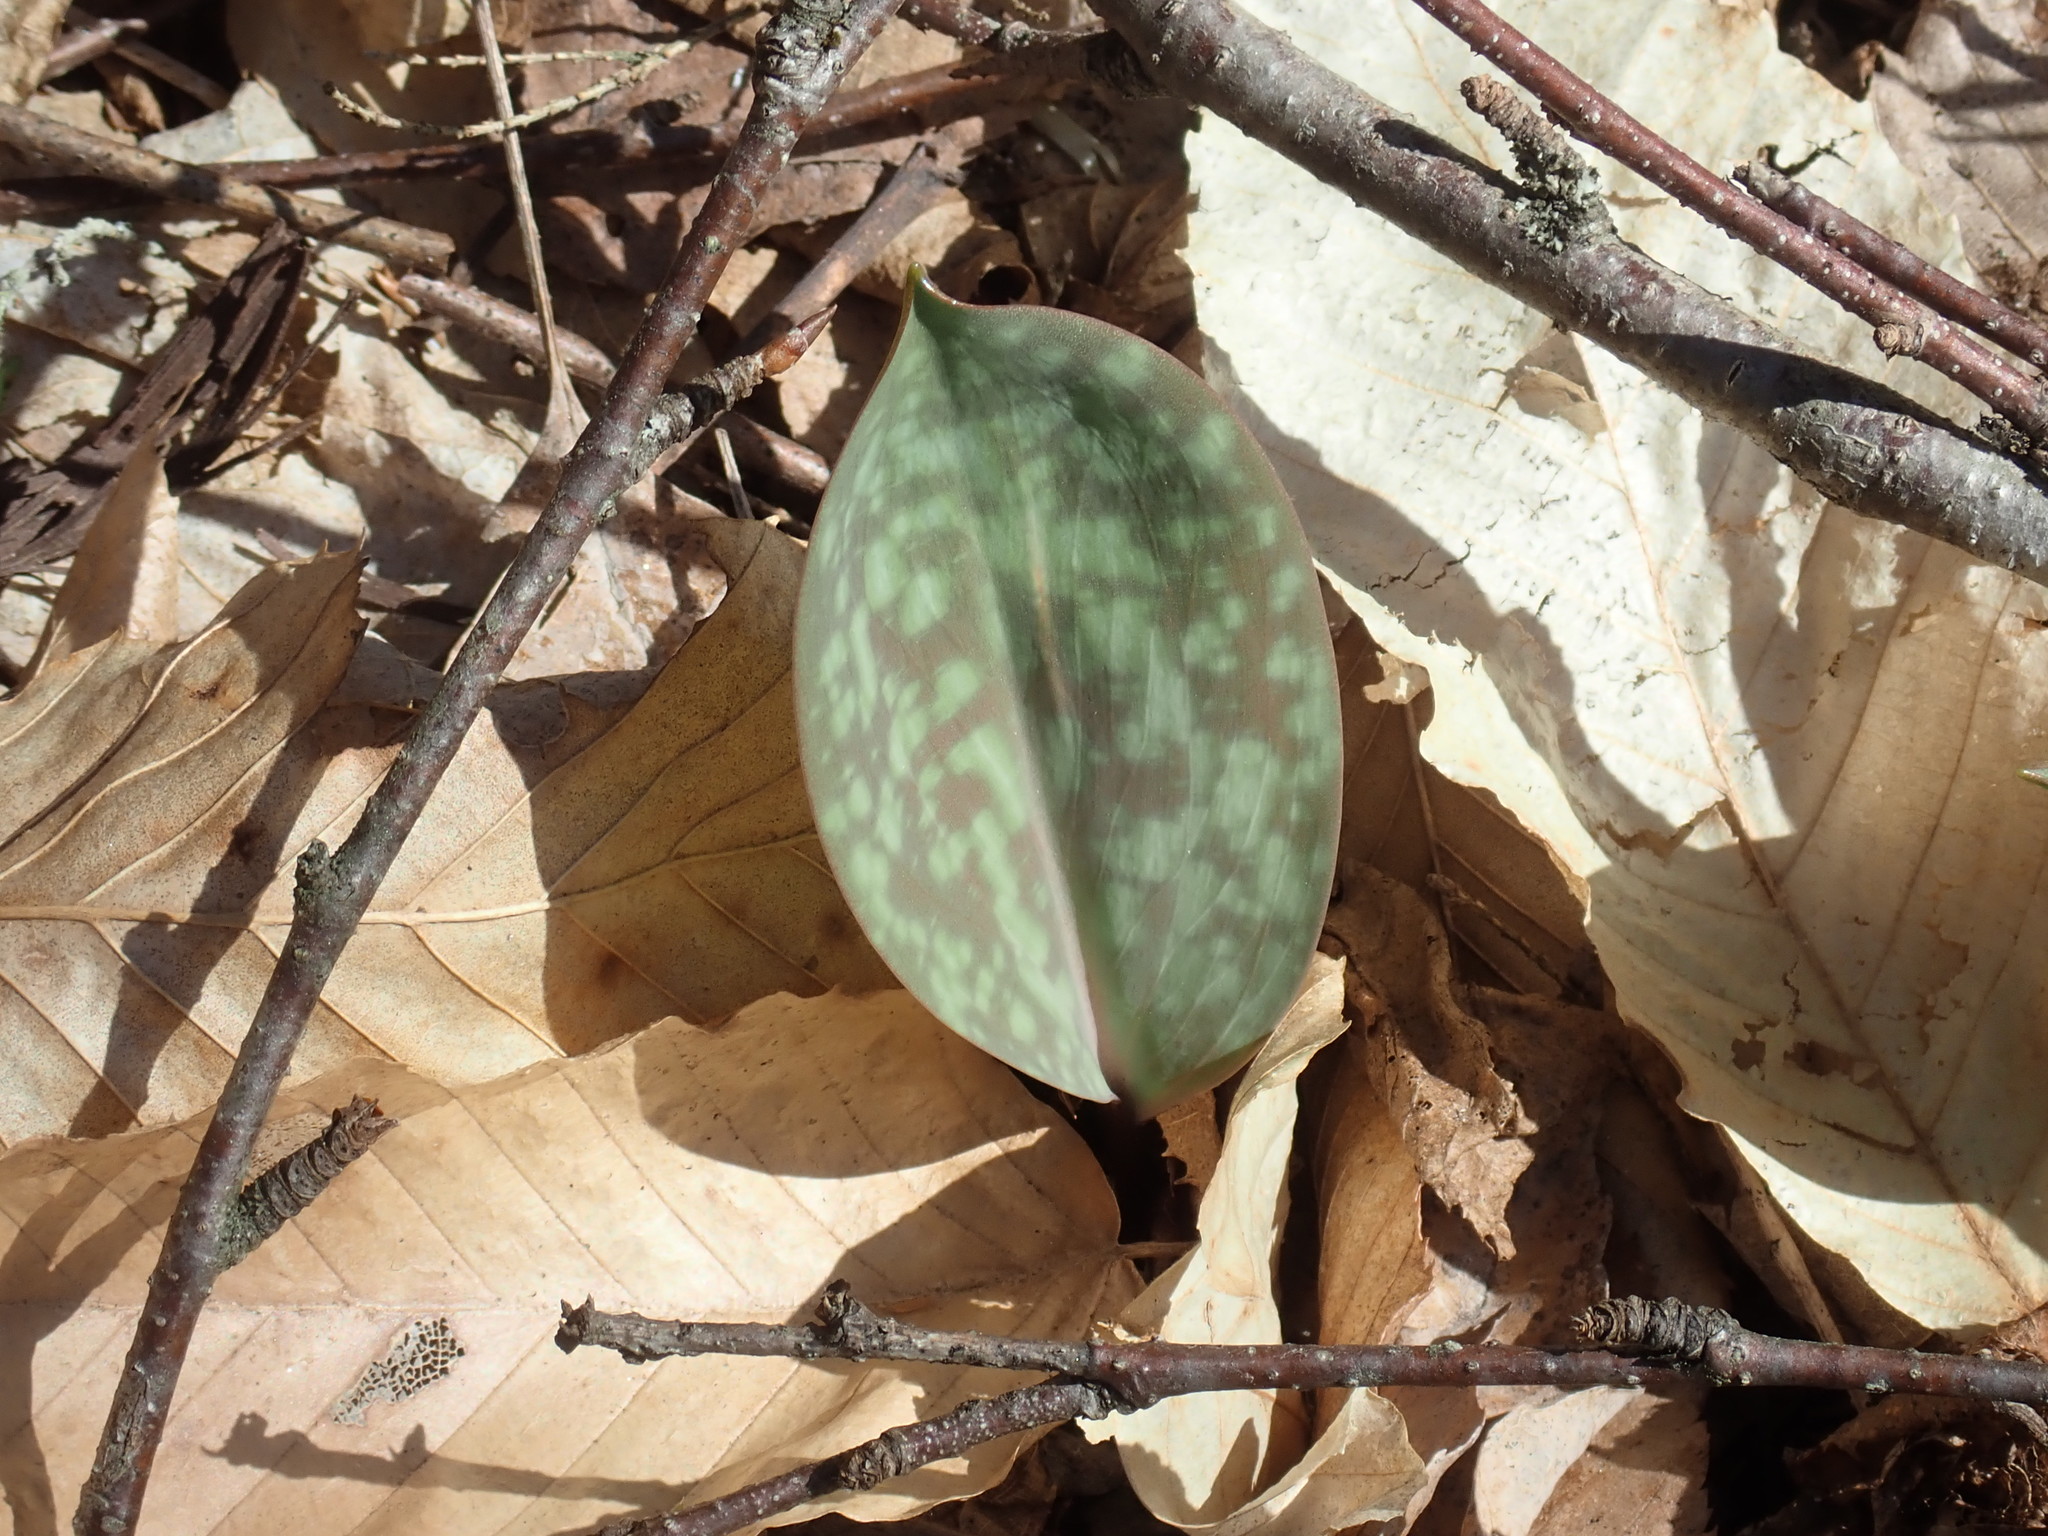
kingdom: Plantae
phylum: Tracheophyta
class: Liliopsida
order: Liliales
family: Liliaceae
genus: Erythronium
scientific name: Erythronium americanum
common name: Yellow adder's-tongue
